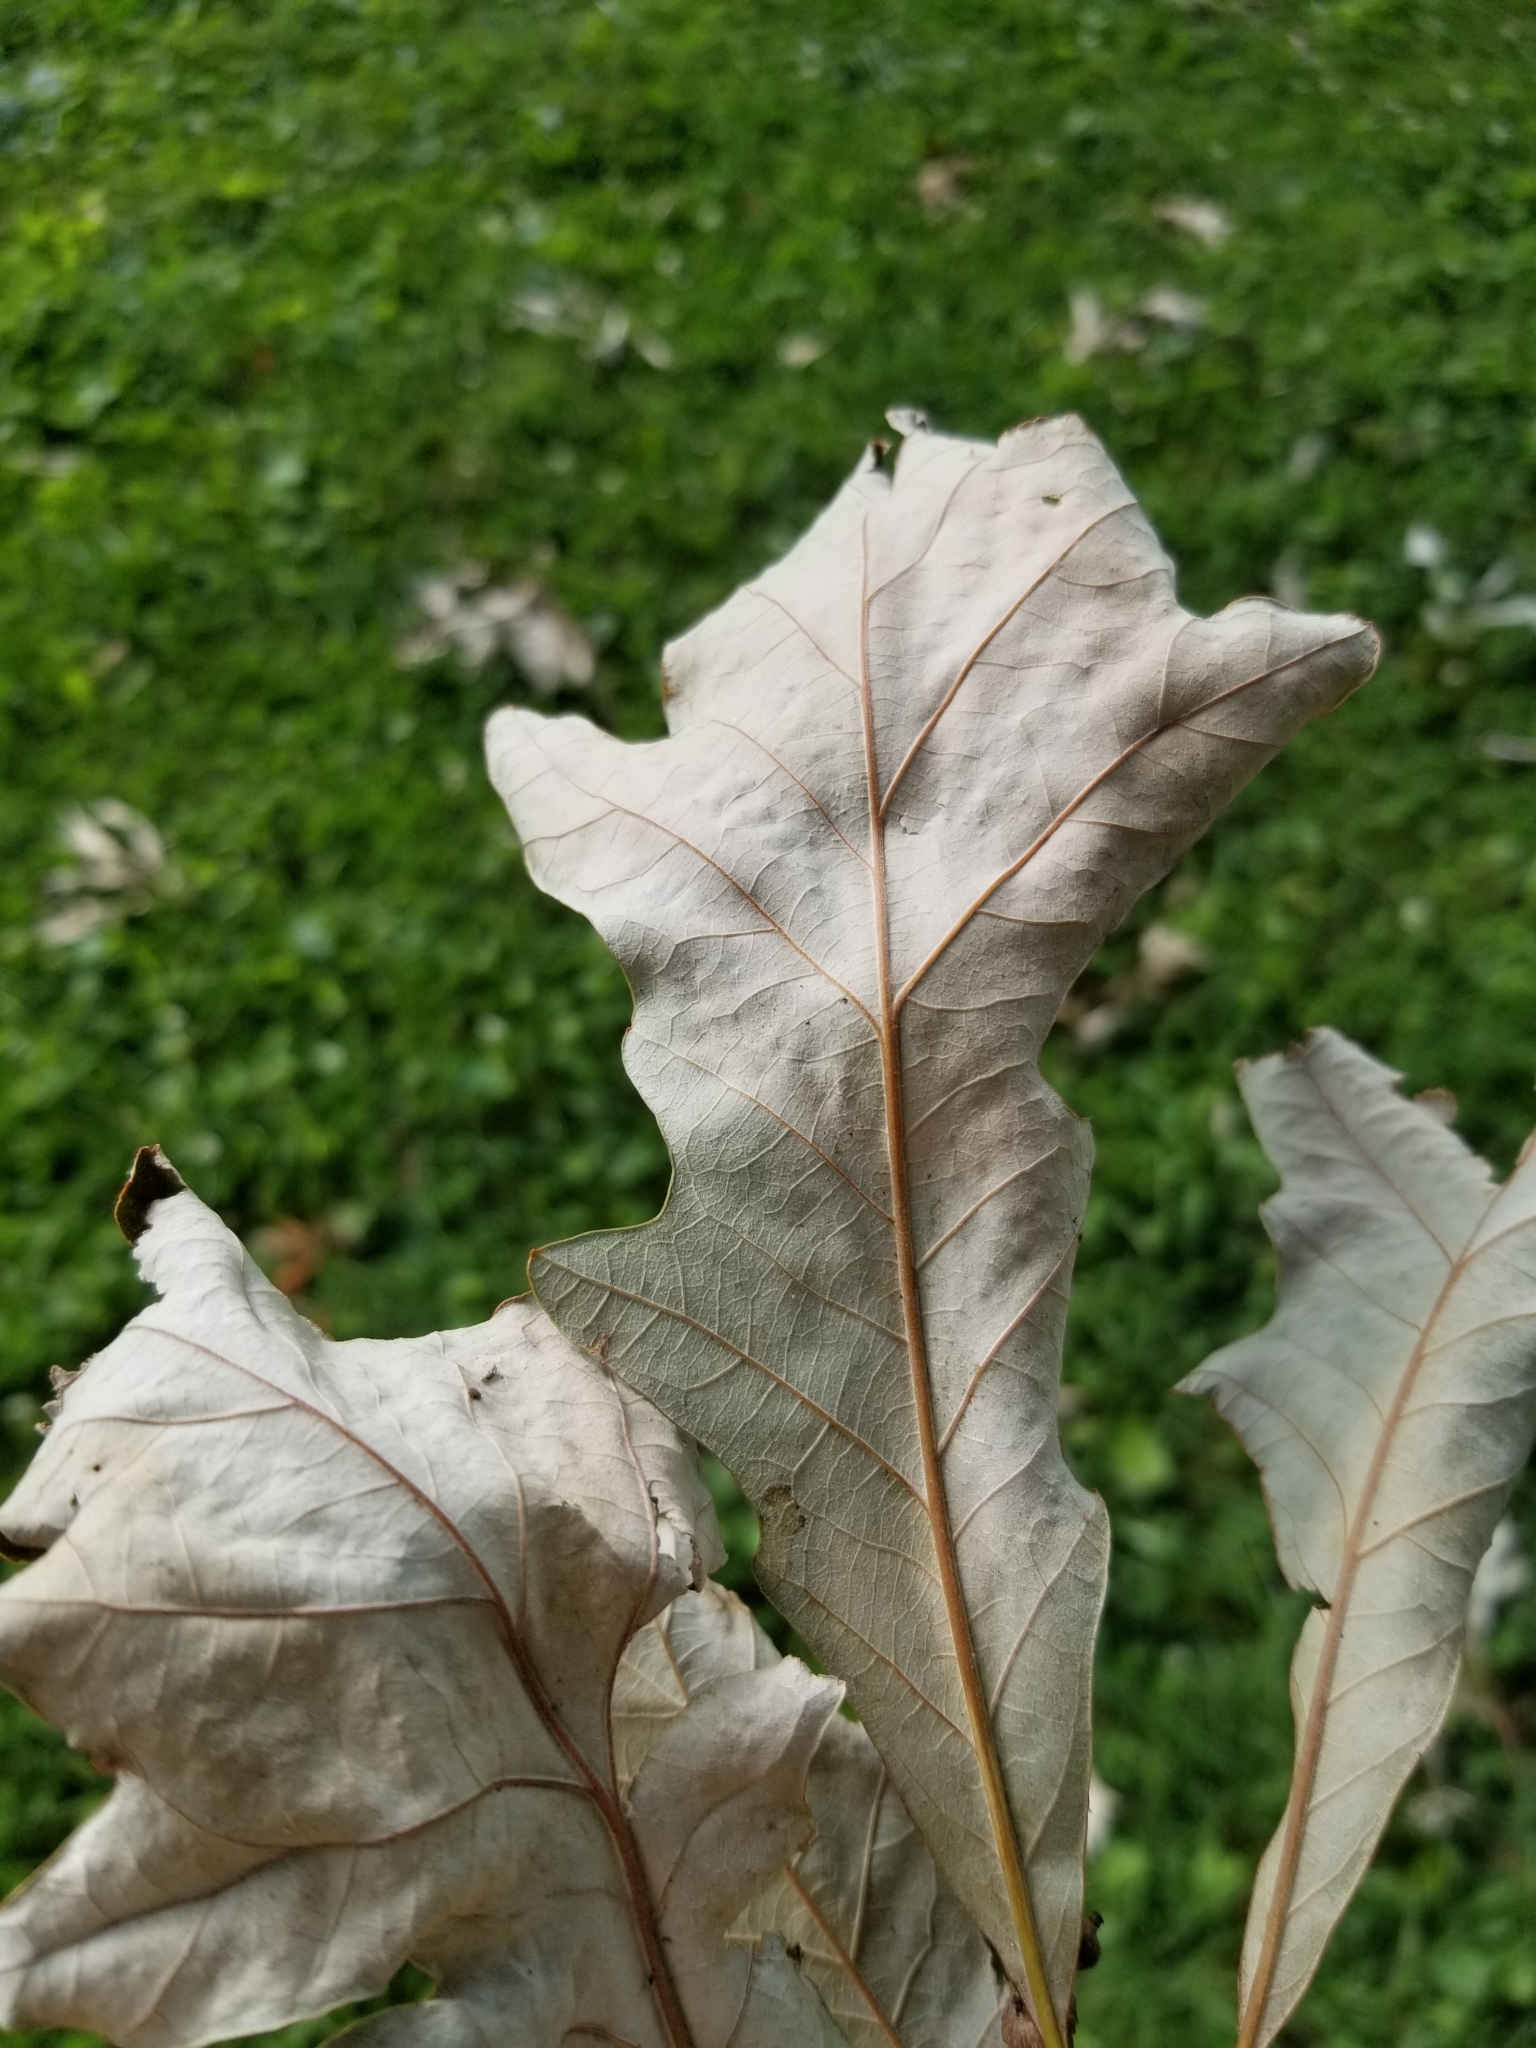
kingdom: Plantae
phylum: Tracheophyta
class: Magnoliopsida
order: Fagales
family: Fagaceae
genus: Quercus
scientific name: Quercus bicolor
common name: Swamp white oak
